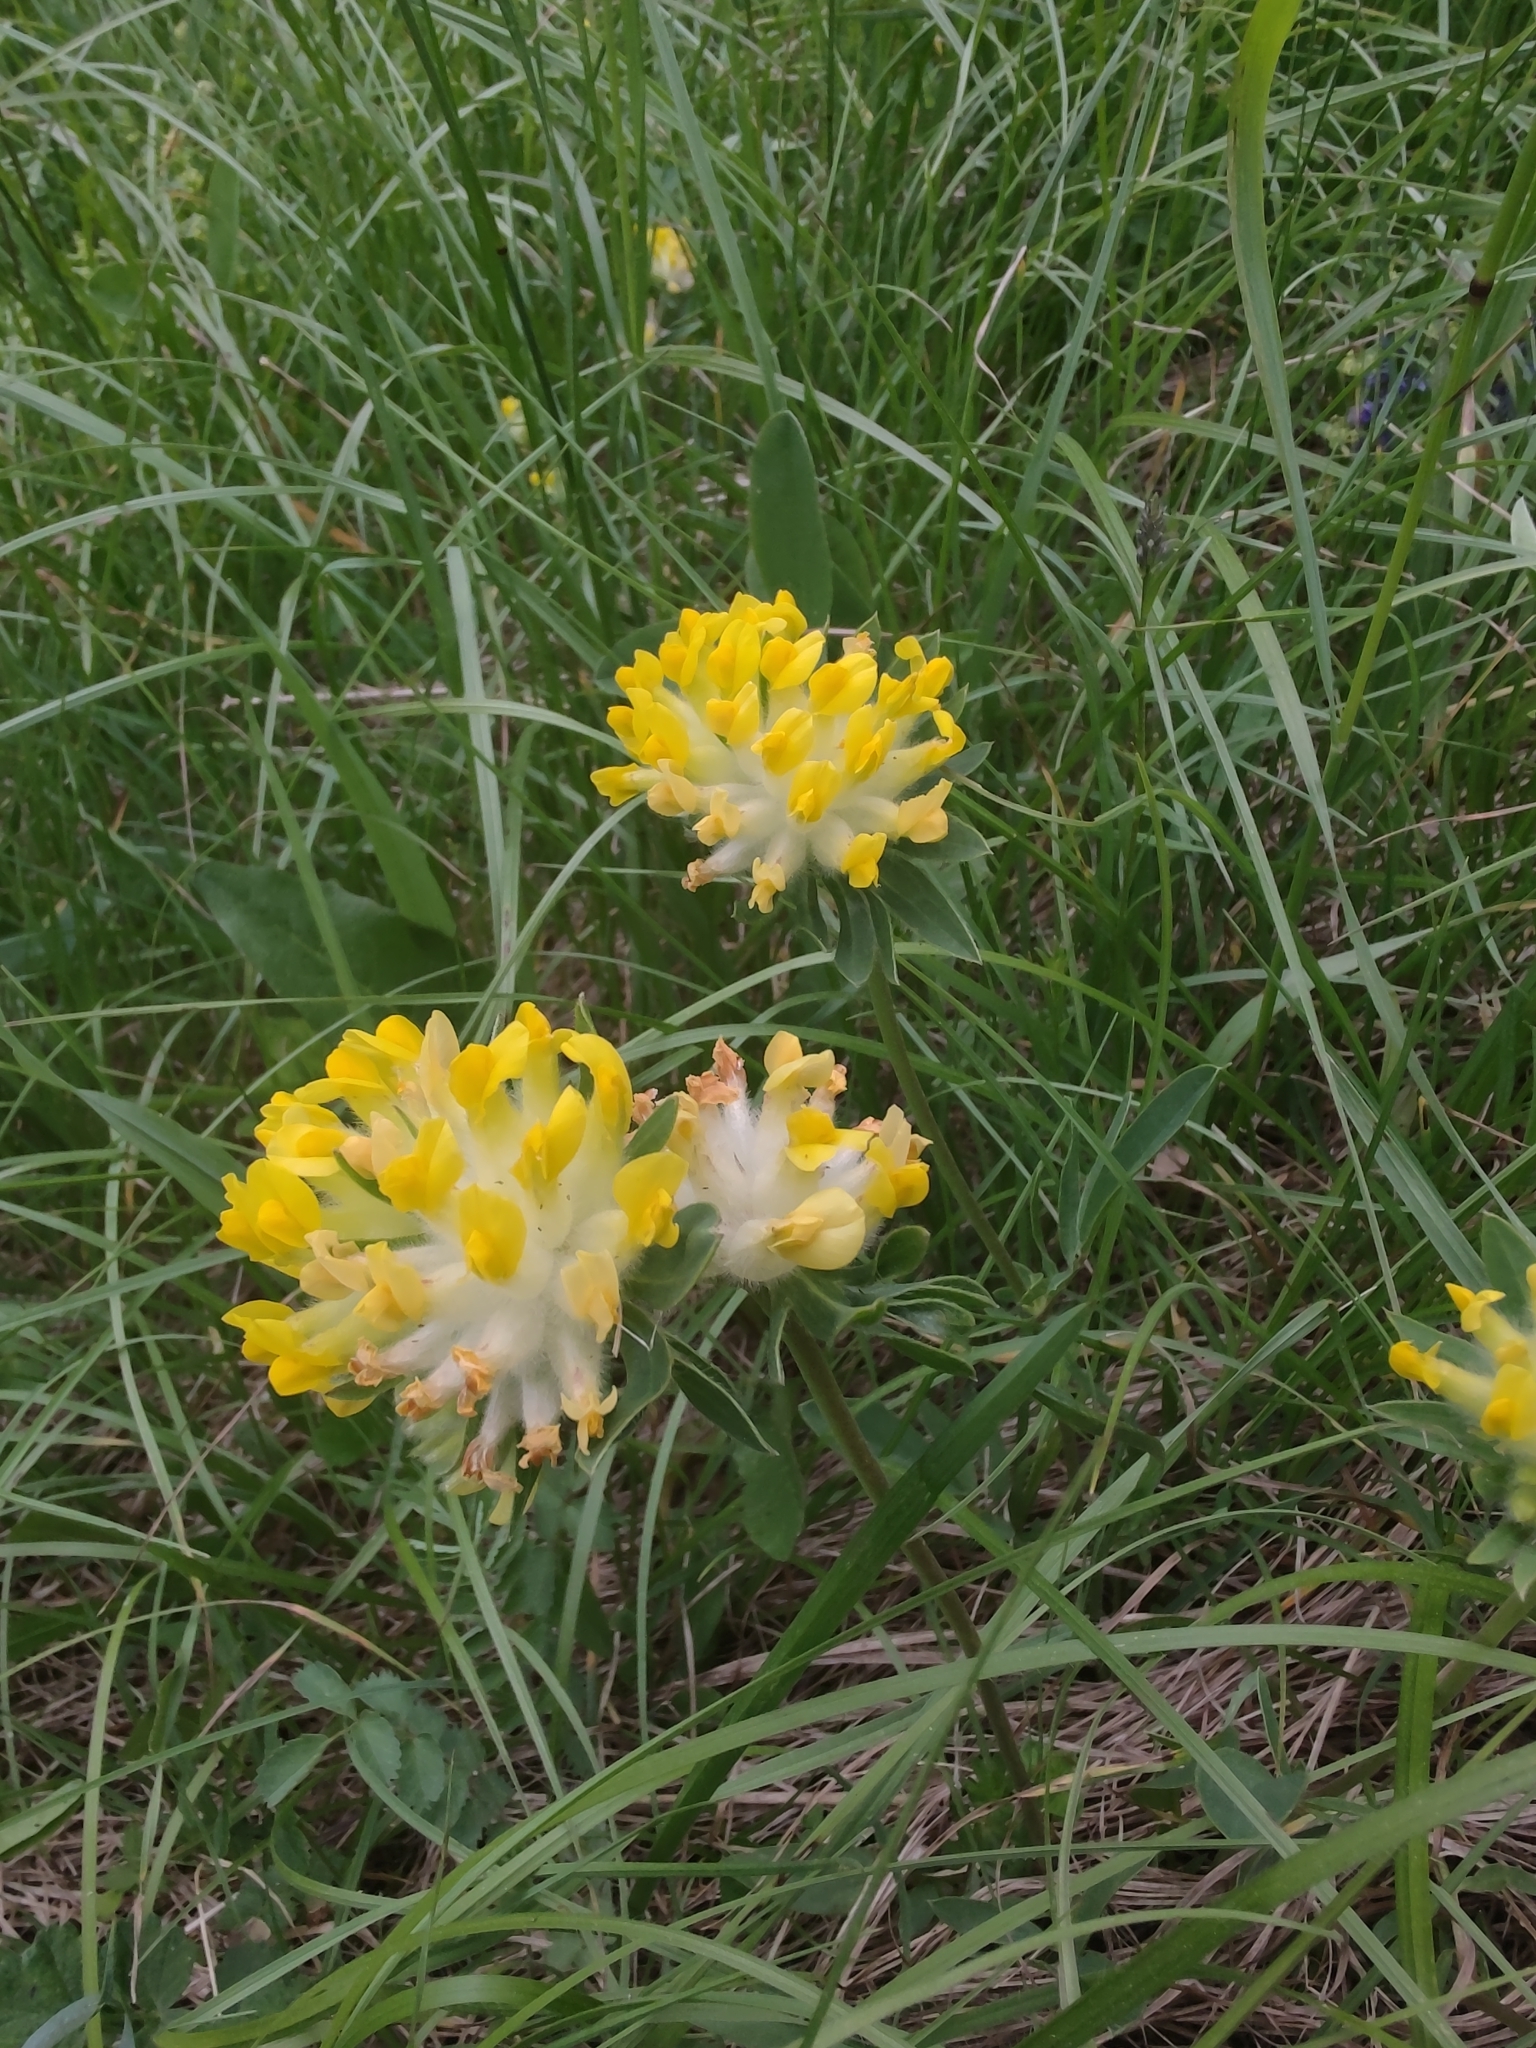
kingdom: Plantae
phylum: Tracheophyta
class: Magnoliopsida
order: Fabales
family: Fabaceae
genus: Anthyllis
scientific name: Anthyllis vulneraria
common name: Kidney vetch
